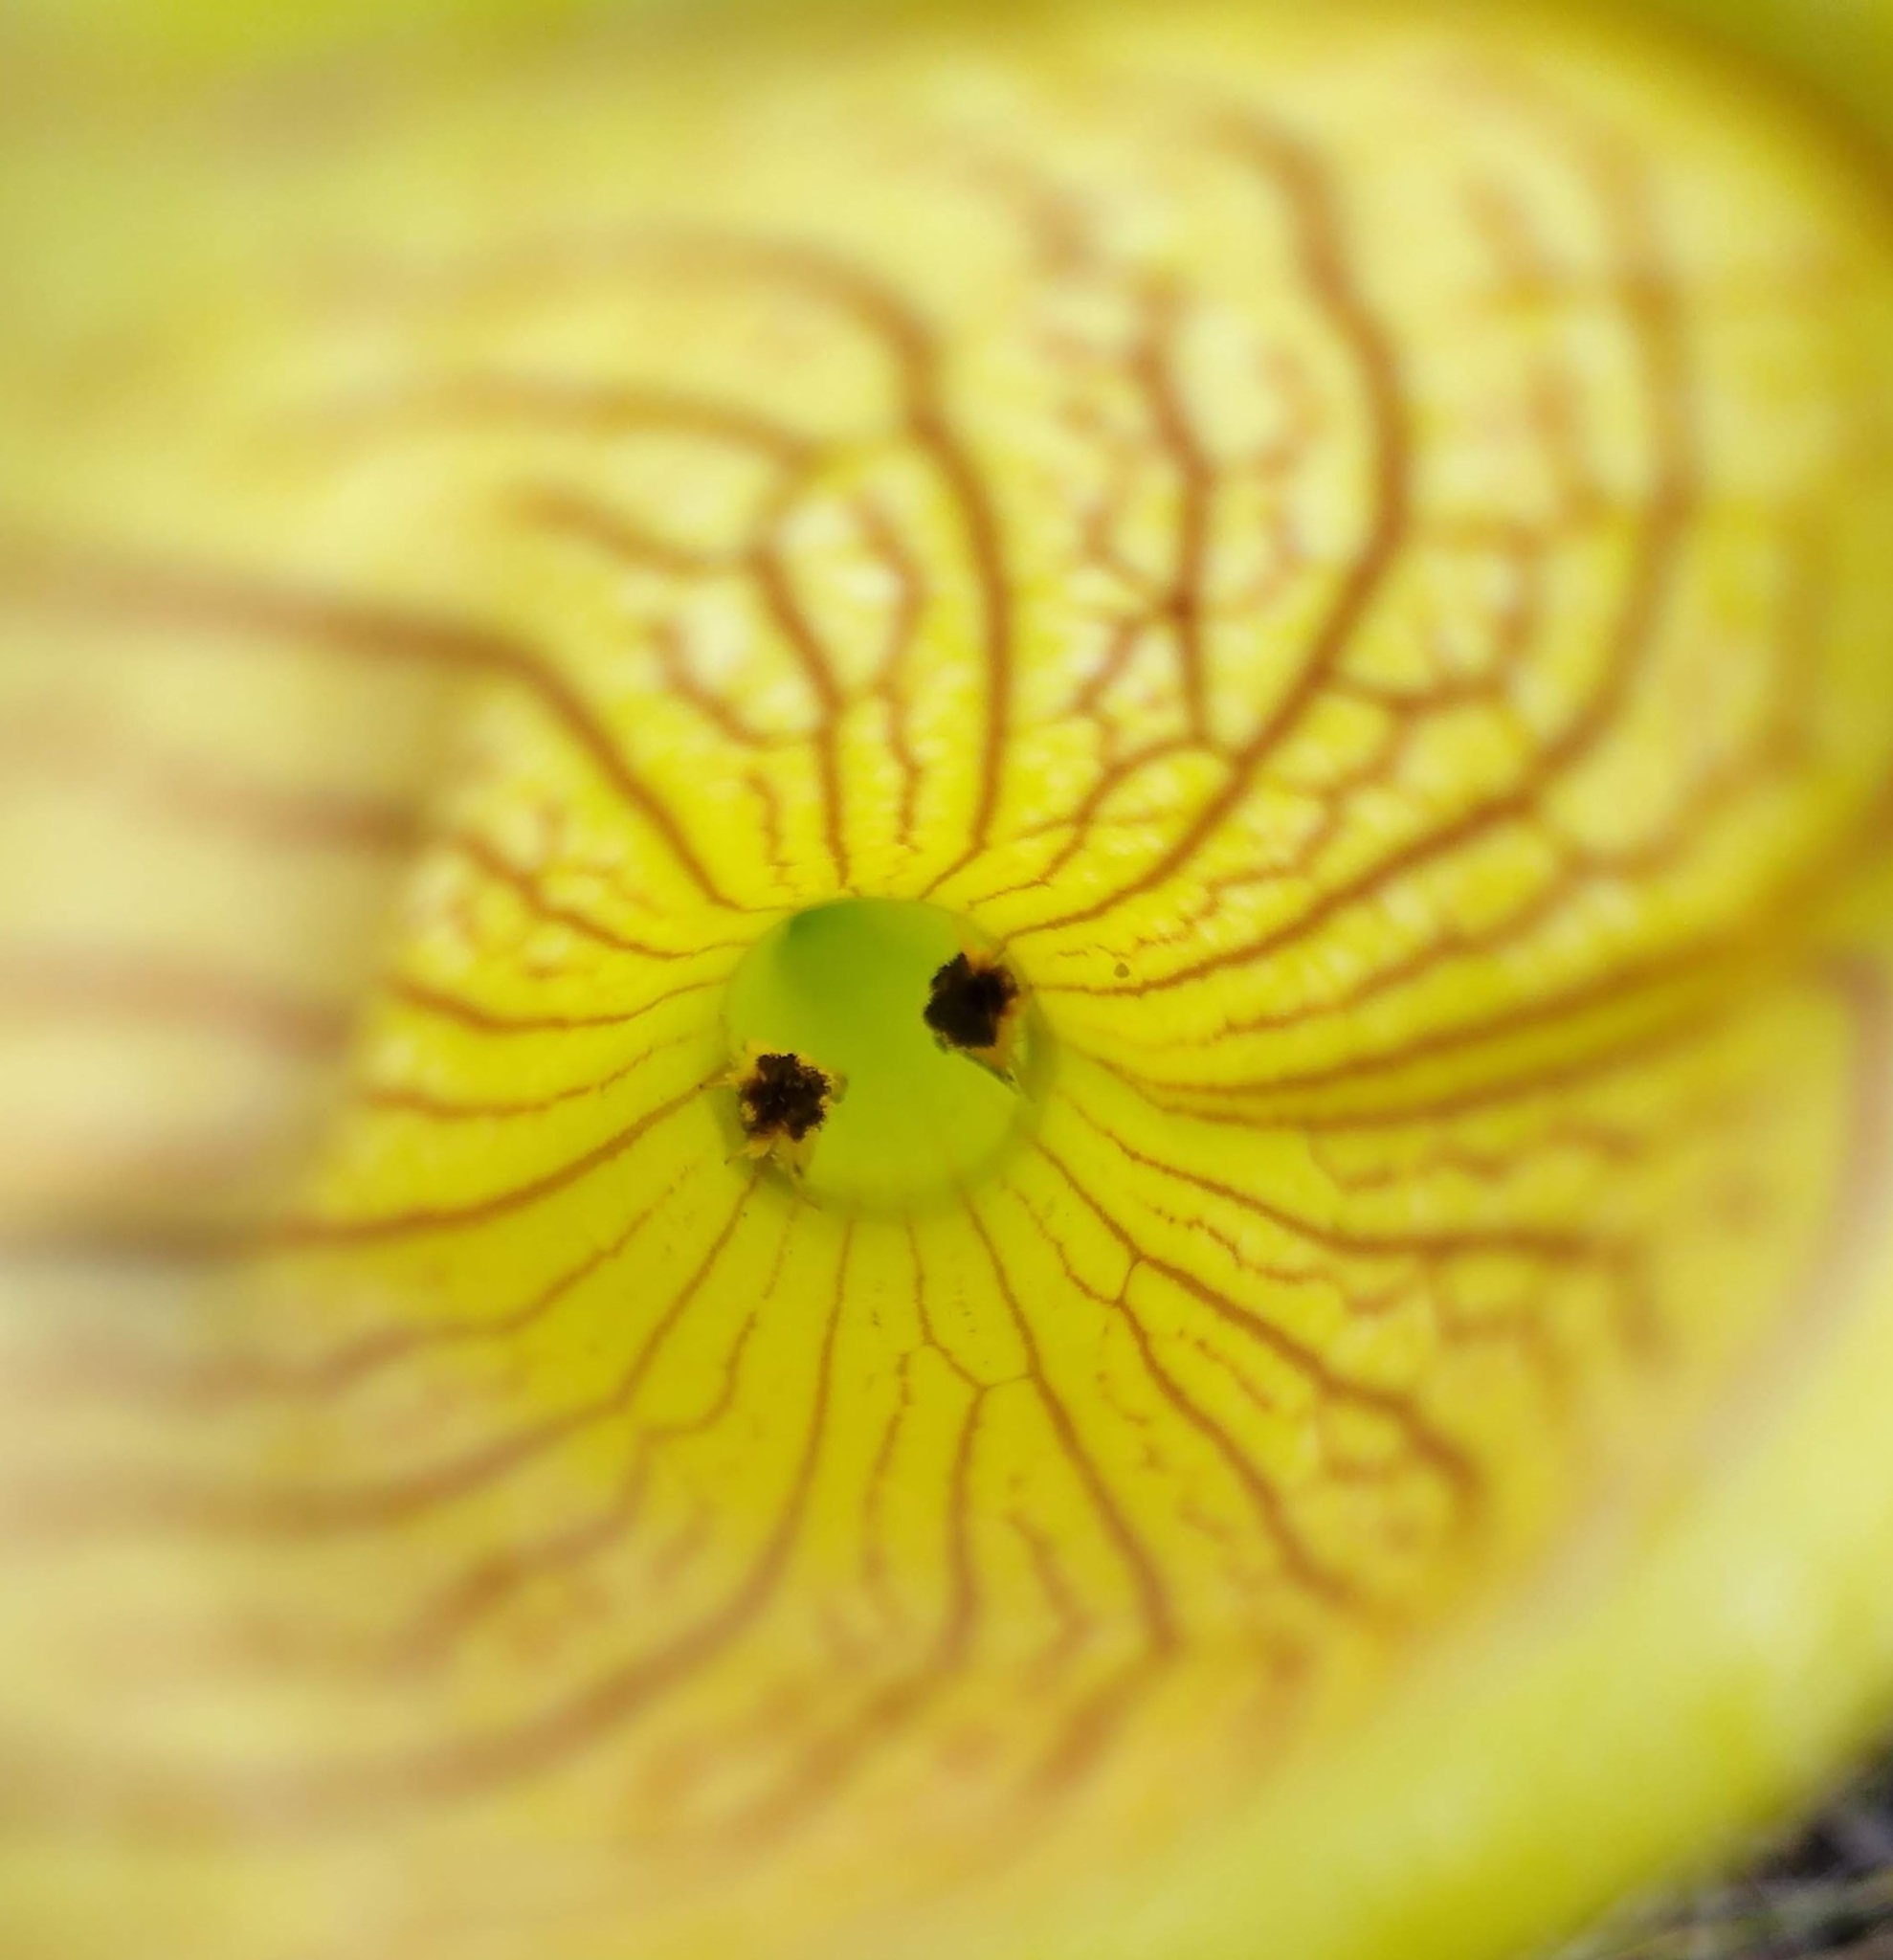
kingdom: Animalia
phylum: Arthropoda
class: Insecta
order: Lepidoptera
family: Noctuidae
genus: Exyra
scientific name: Exyra semicrocea
